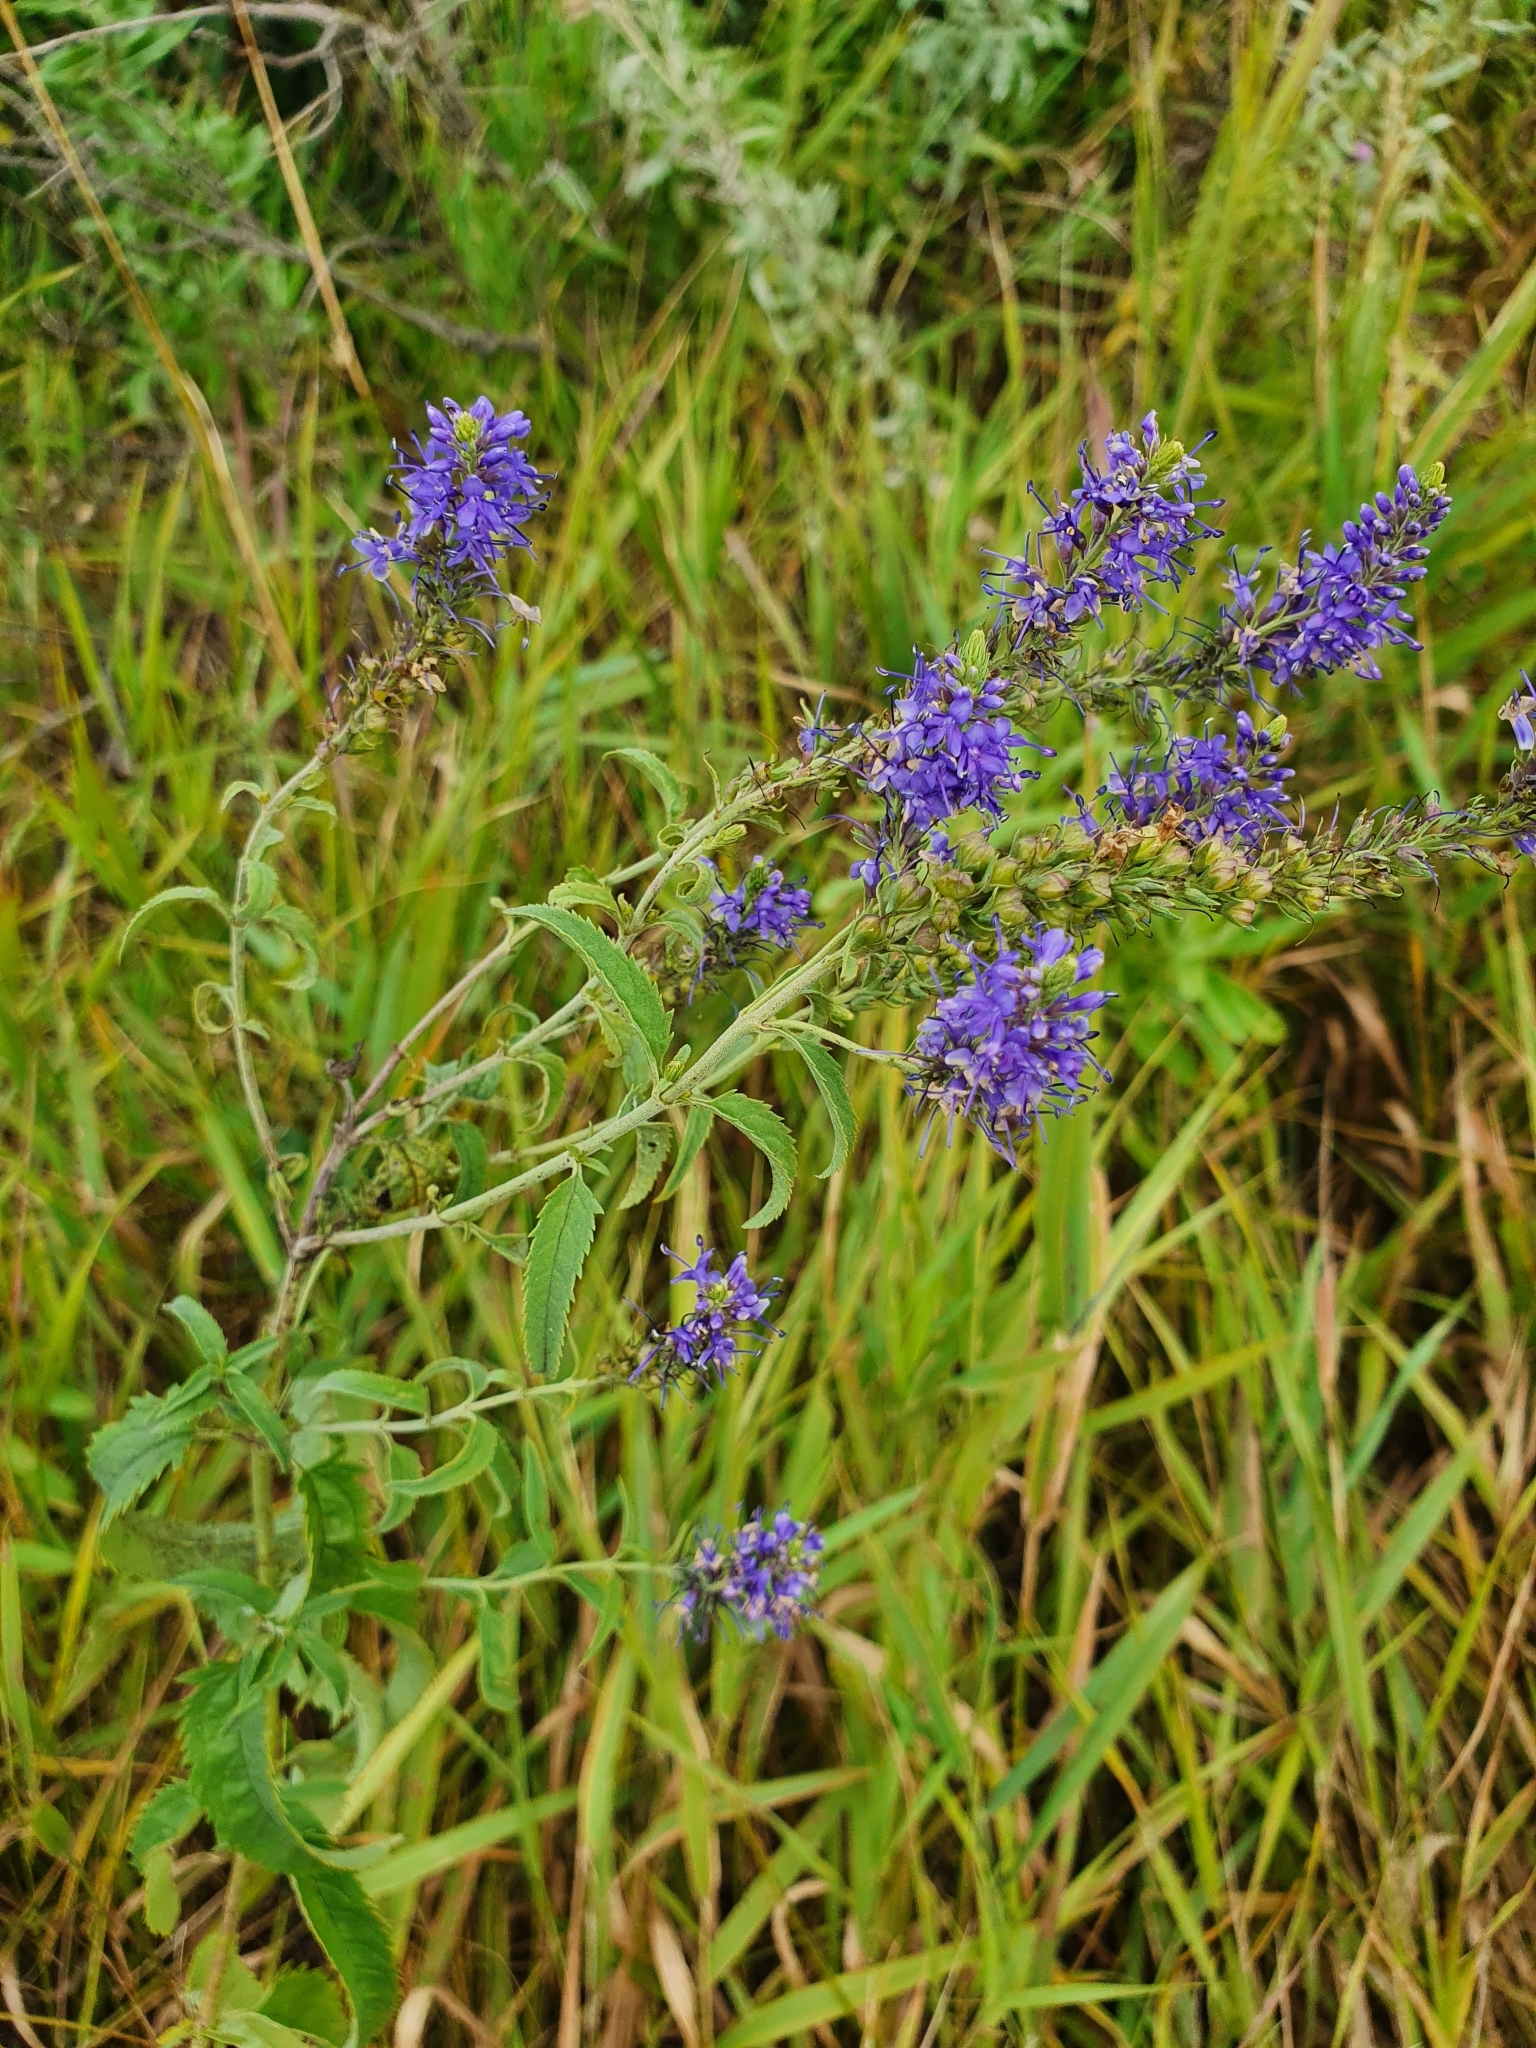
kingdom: Plantae
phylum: Tracheophyta
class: Magnoliopsida
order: Lamiales
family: Plantaginaceae
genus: Veronica
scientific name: Veronica longifolia
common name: Garden speedwell
